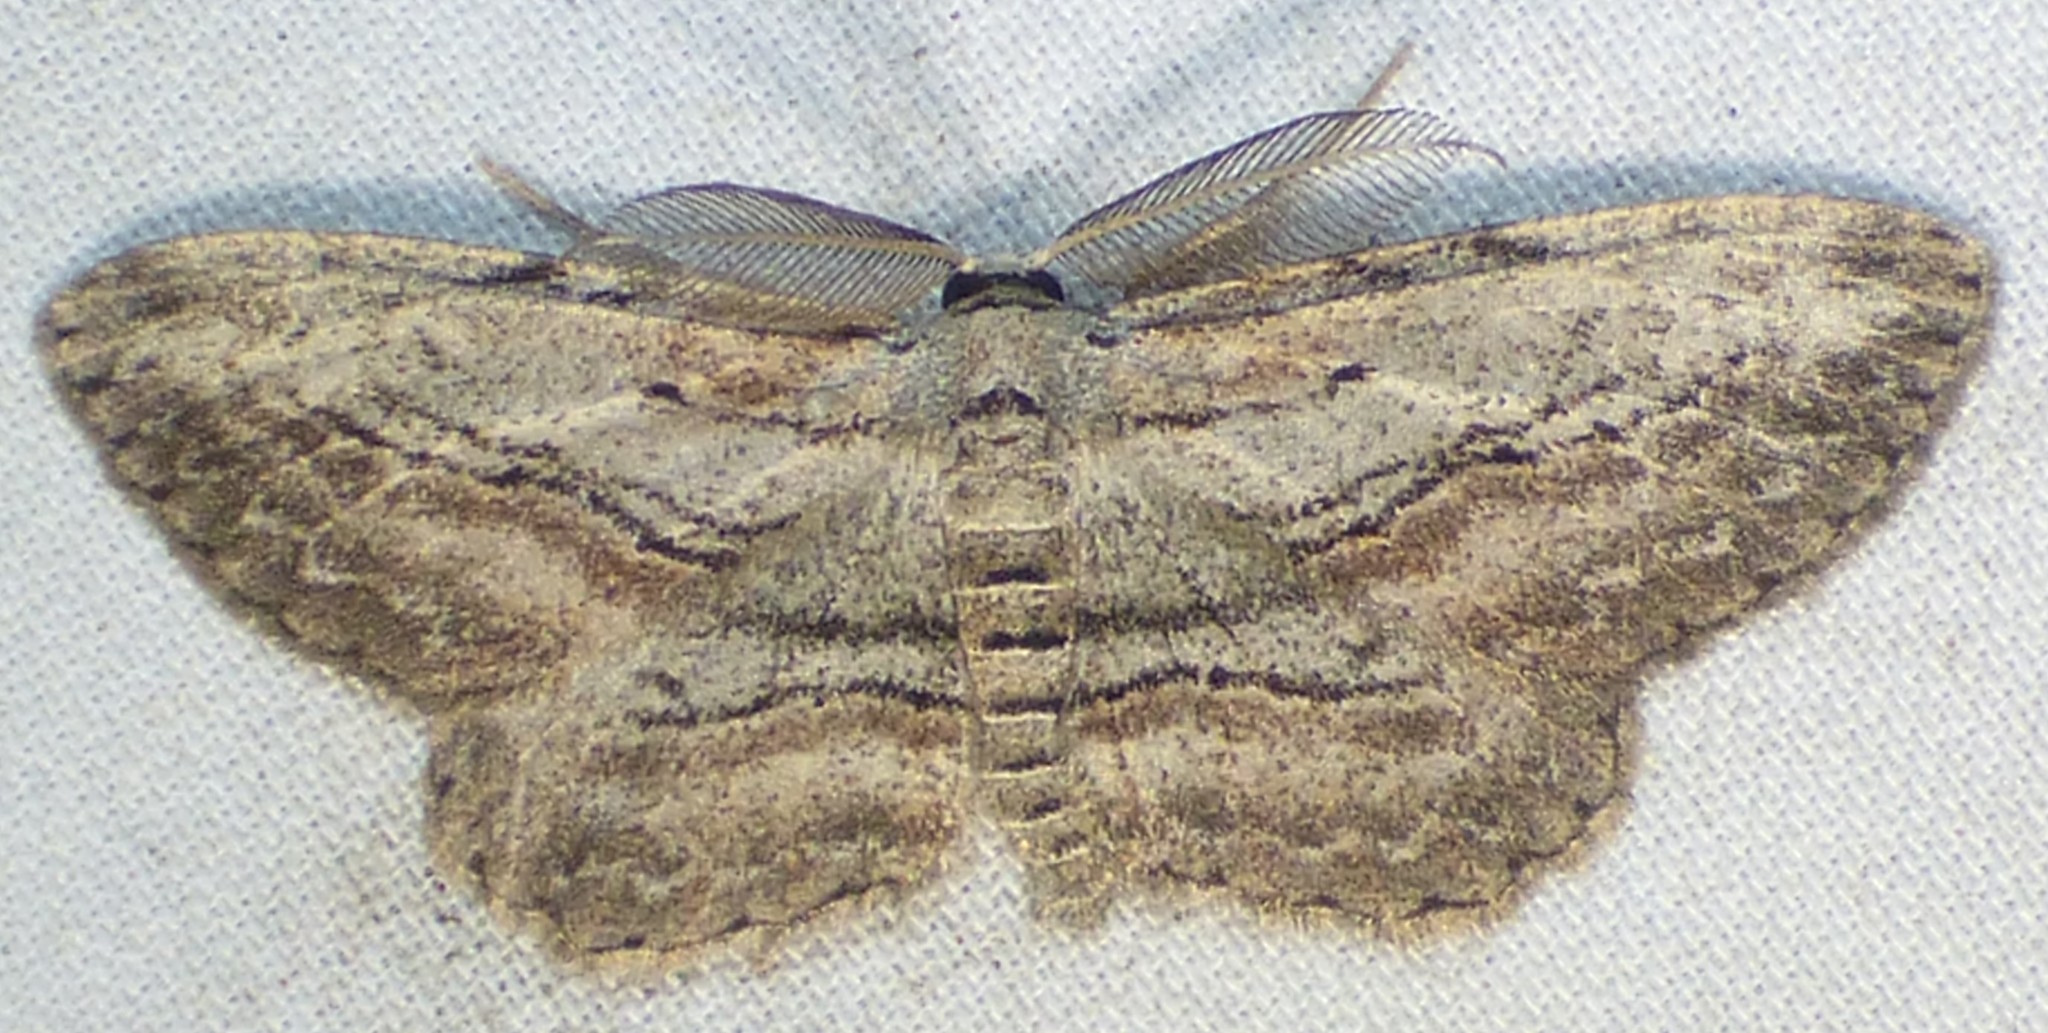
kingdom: Animalia
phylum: Arthropoda
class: Insecta
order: Lepidoptera
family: Geometridae
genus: Glena
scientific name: Glena plumosaria
